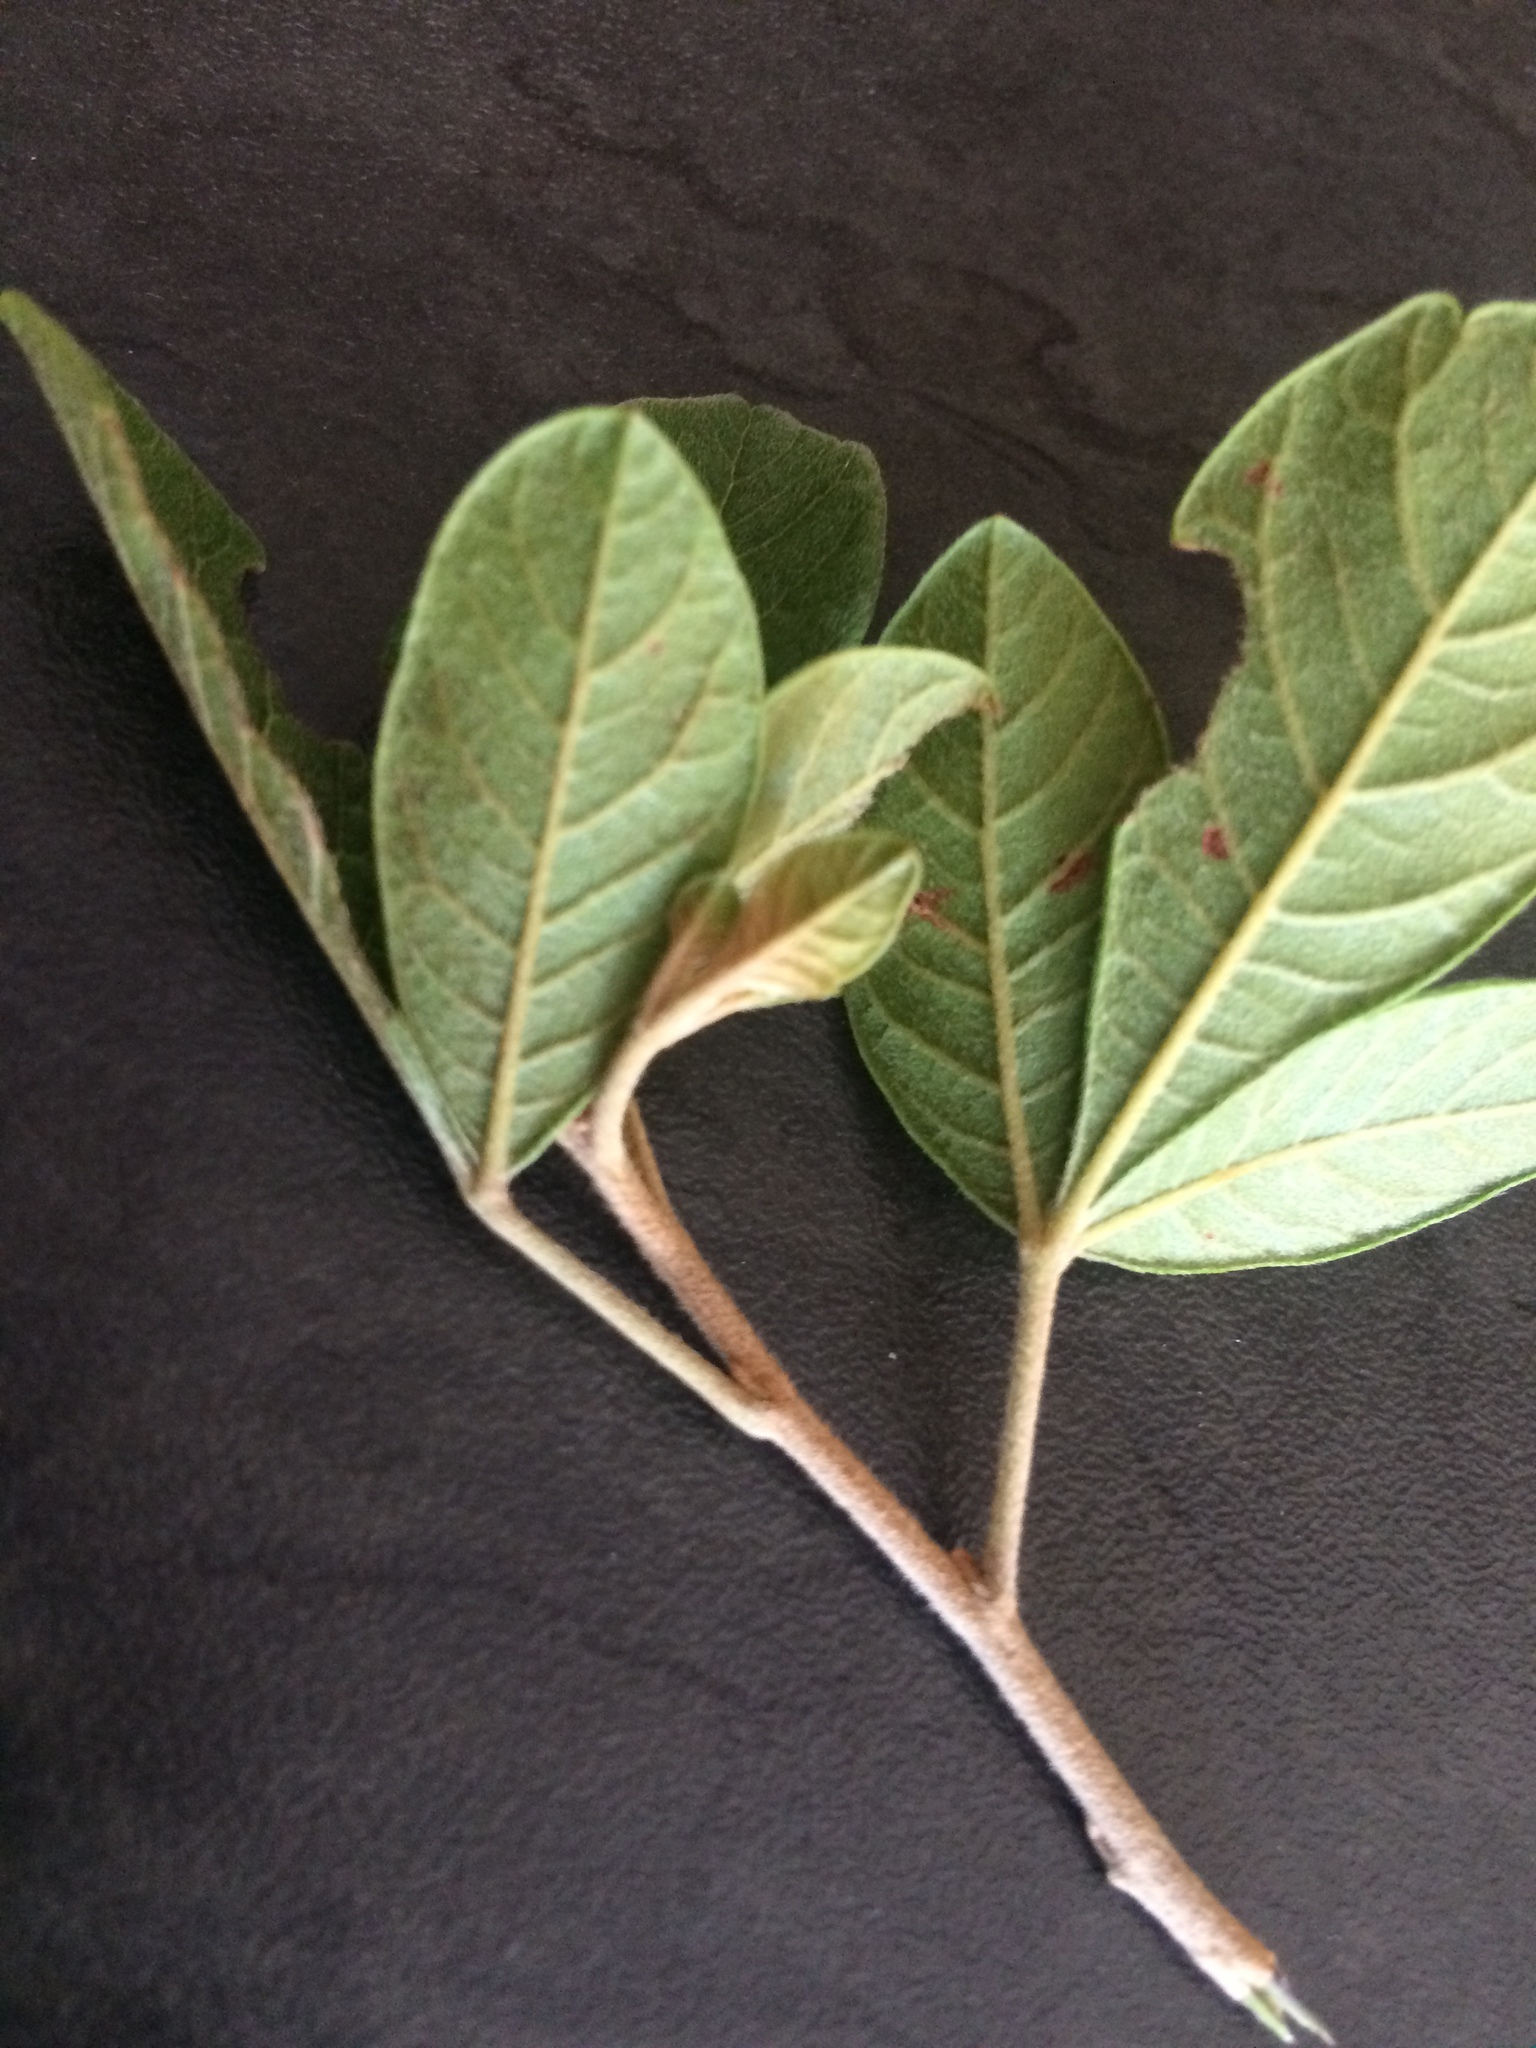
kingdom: Plantae
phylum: Tracheophyta
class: Magnoliopsida
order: Sapindales
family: Anacardiaceae
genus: Searsia
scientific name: Searsia pyroides
